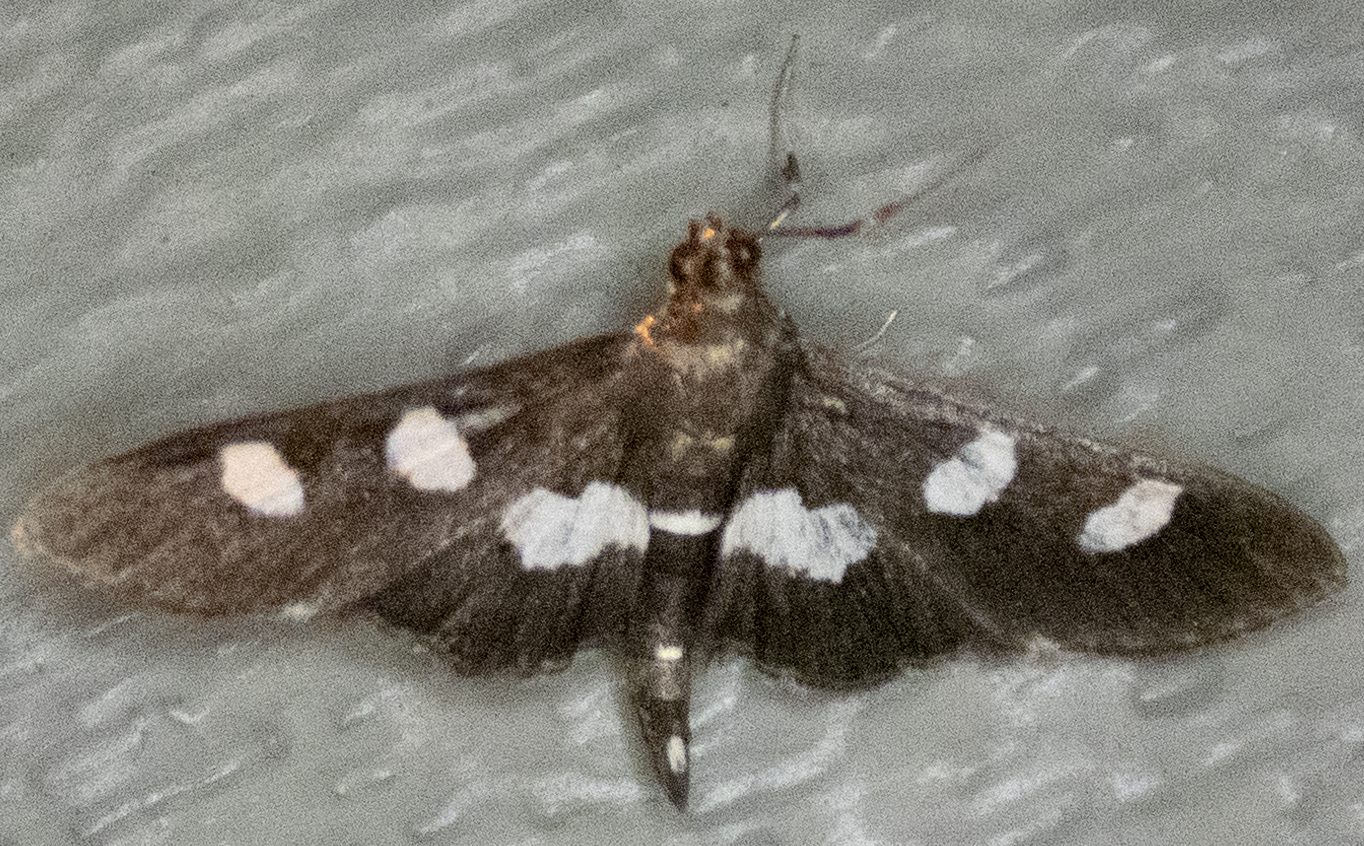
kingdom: Animalia
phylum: Arthropoda
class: Insecta
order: Lepidoptera
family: Crambidae
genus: Desmia
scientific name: Desmia
